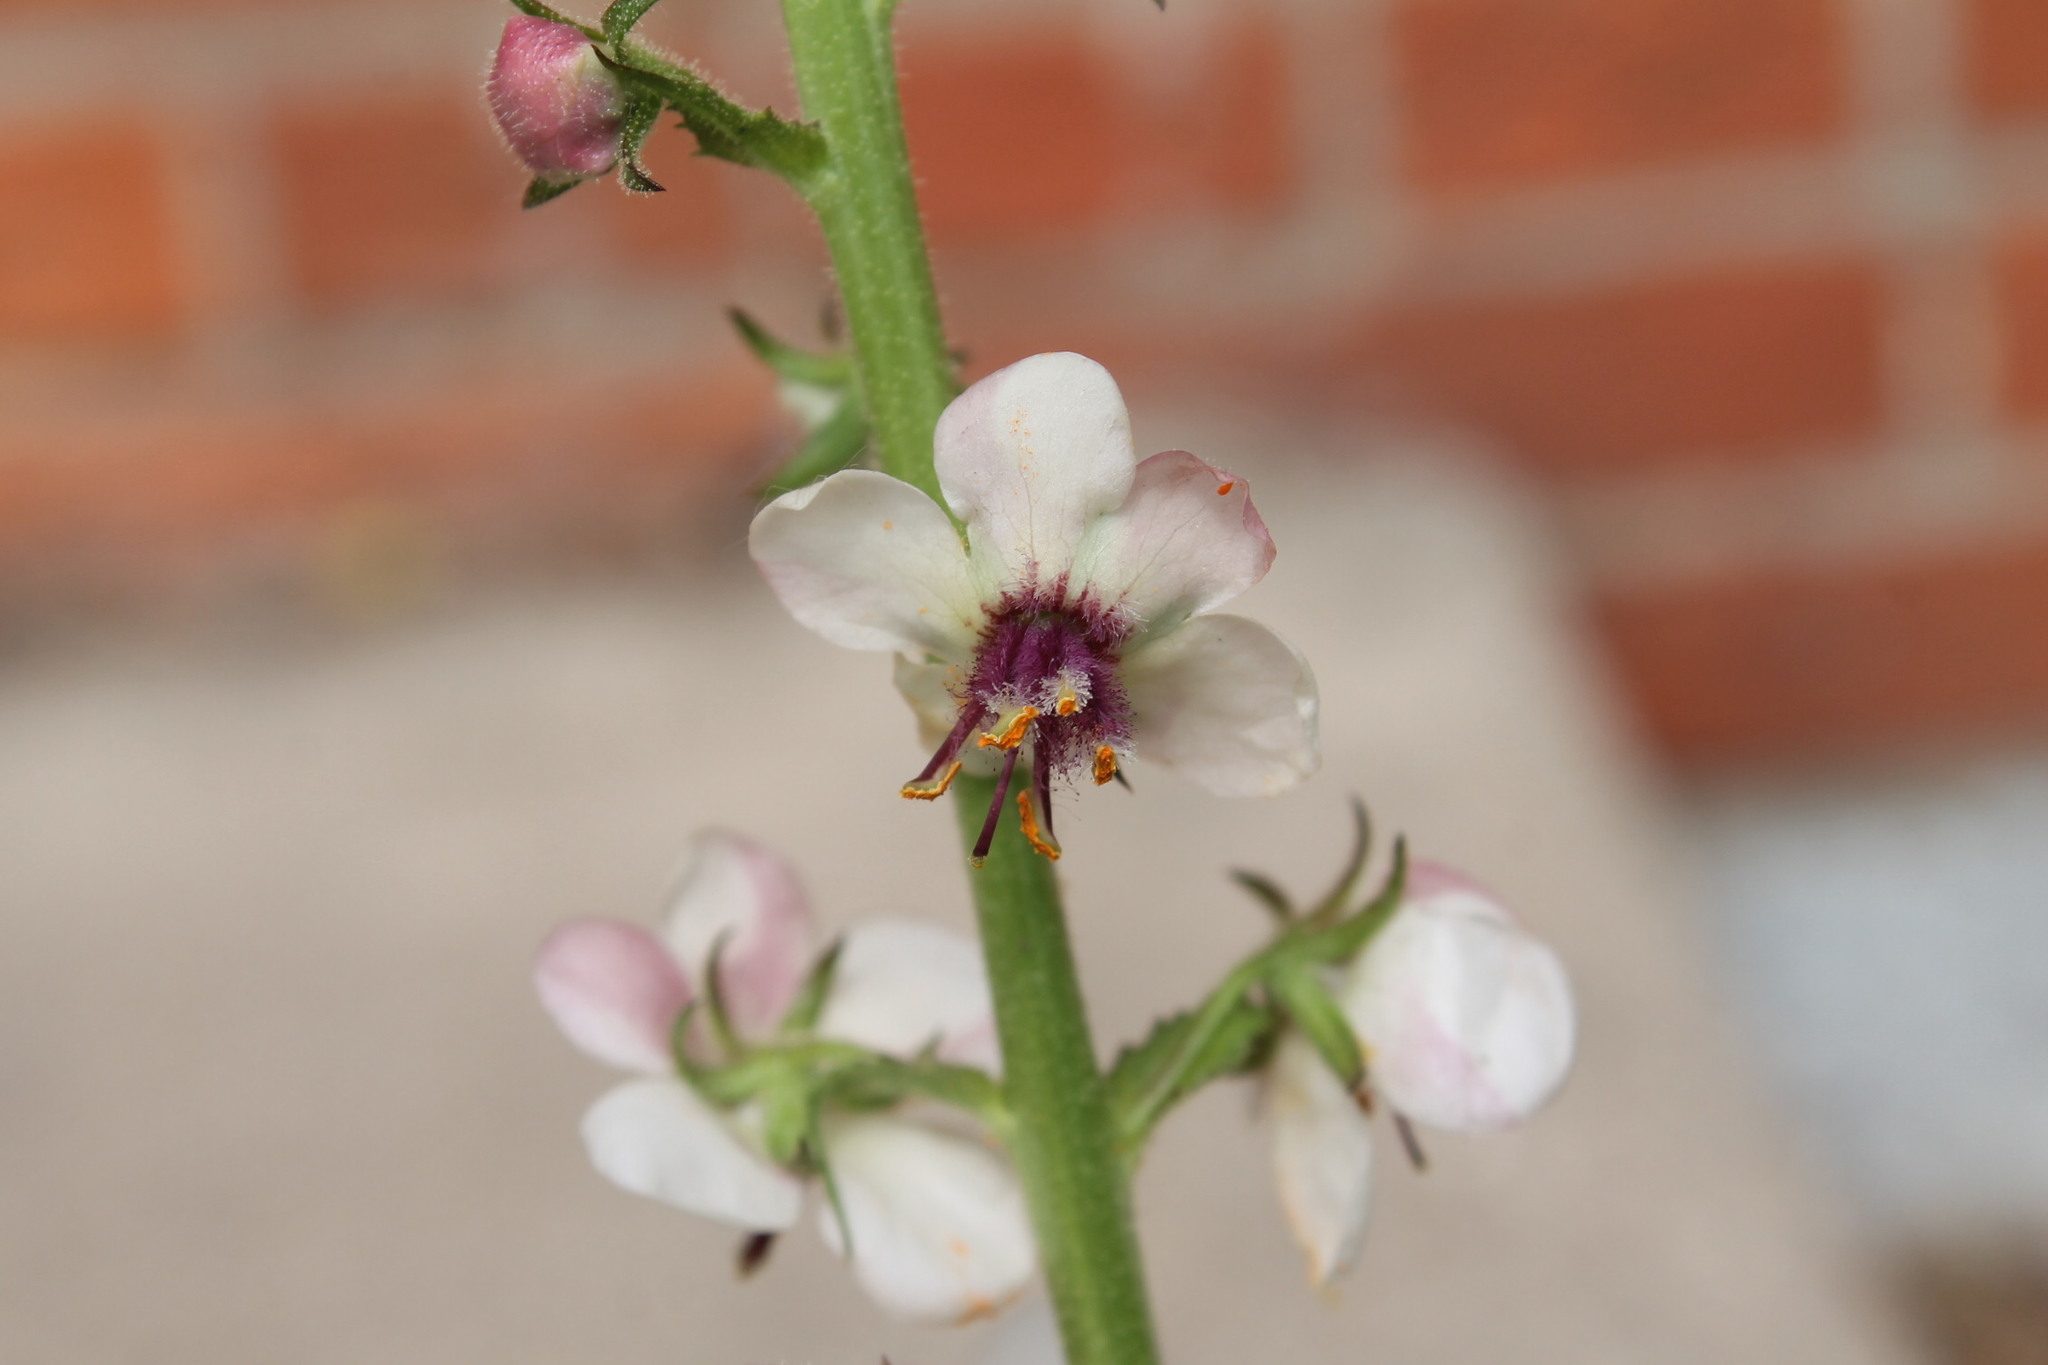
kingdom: Plantae
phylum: Tracheophyta
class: Magnoliopsida
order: Lamiales
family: Scrophulariaceae
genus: Verbascum
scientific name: Verbascum blattaria
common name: Moth mullein
